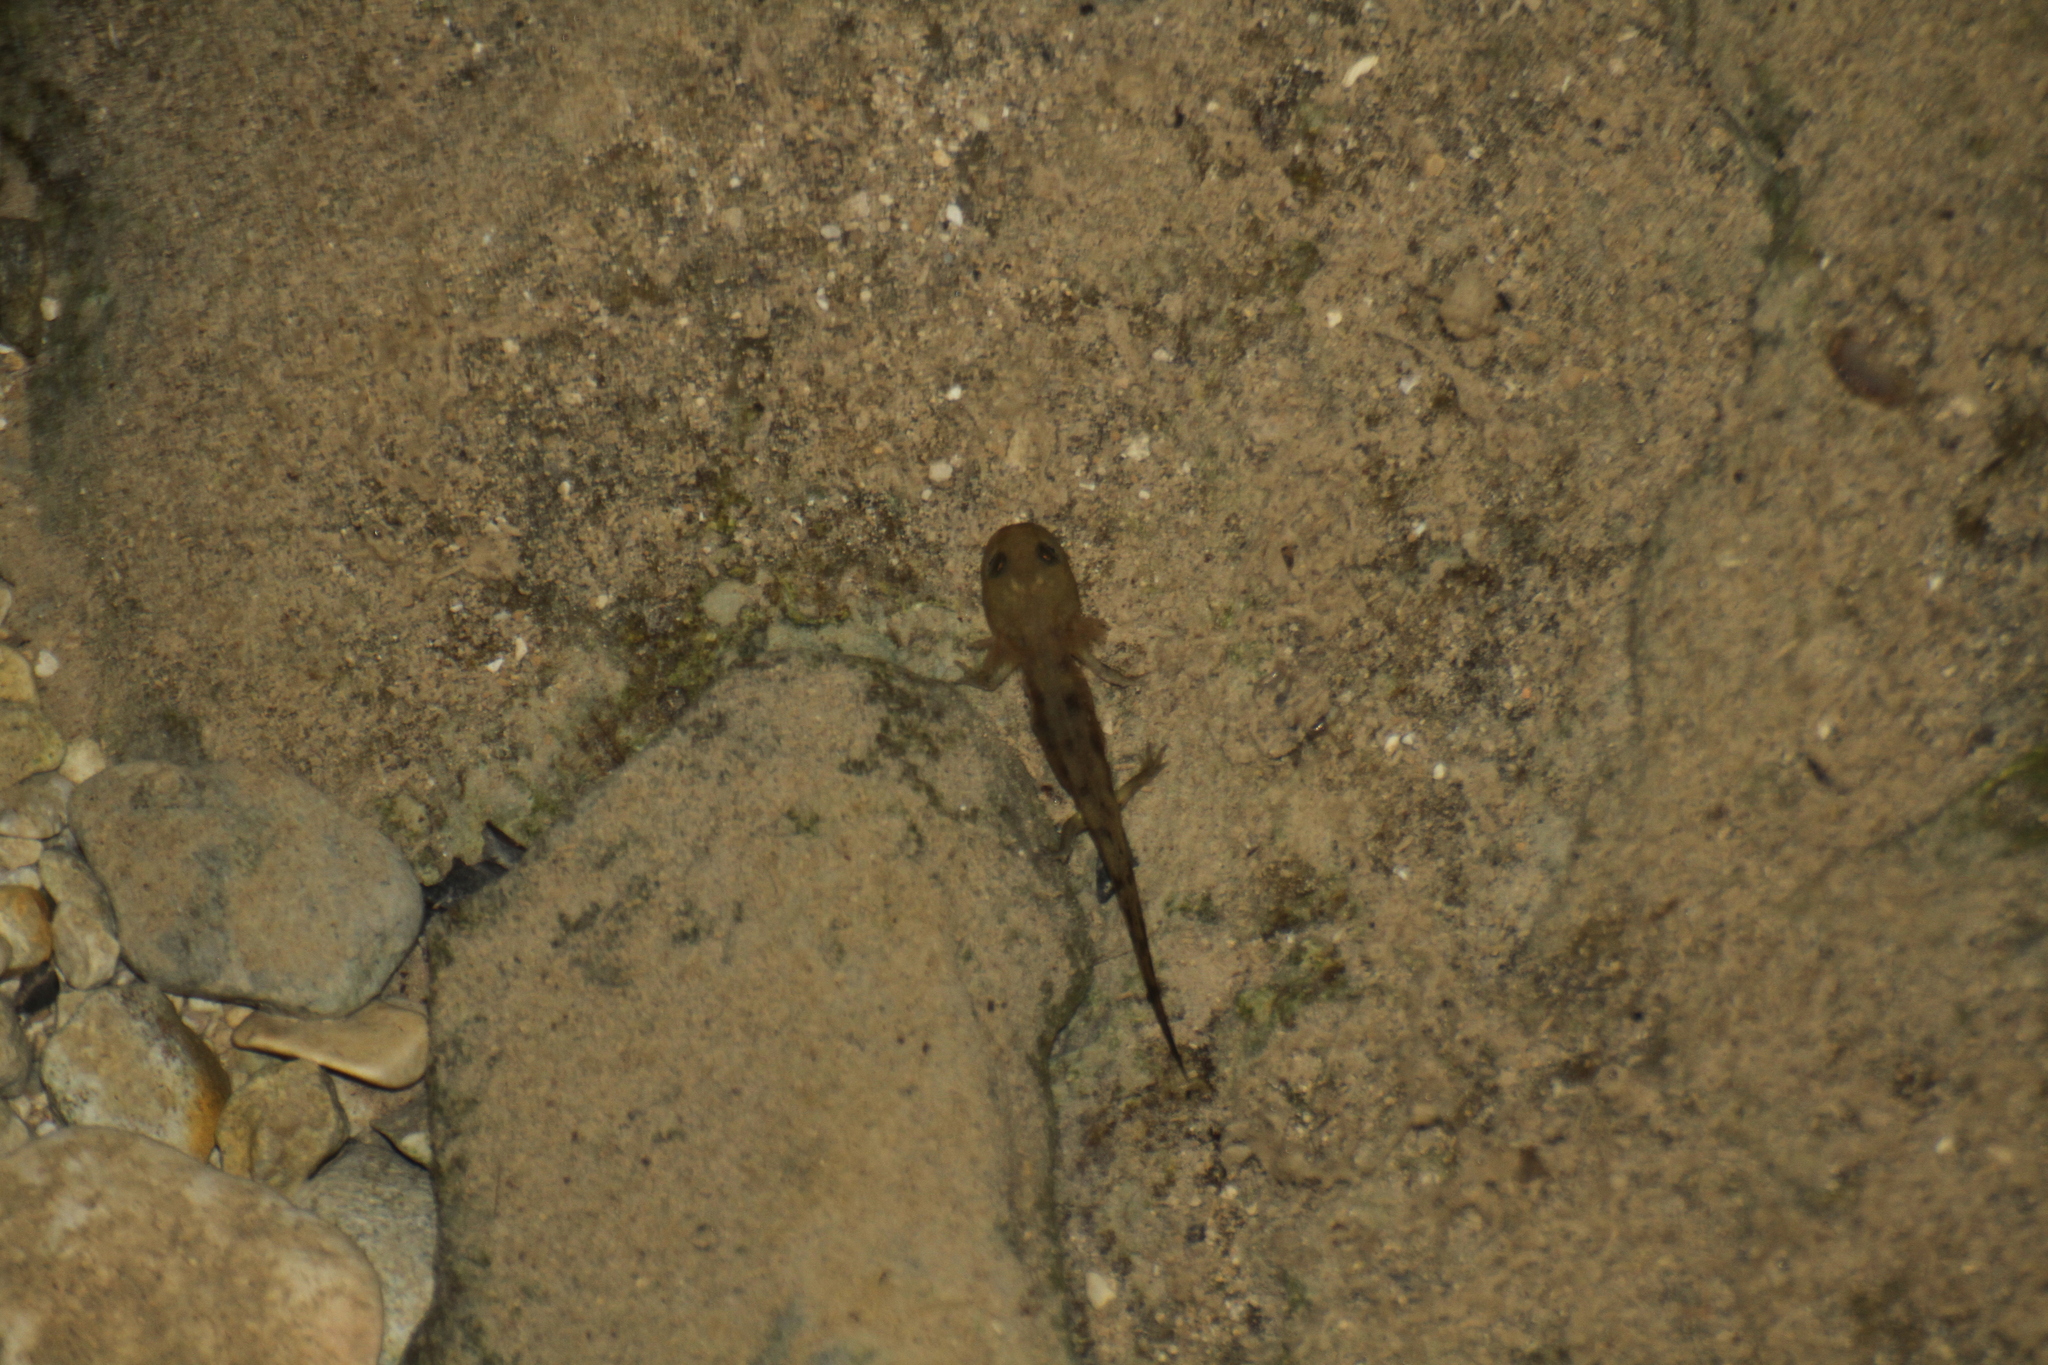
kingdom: Animalia
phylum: Chordata
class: Amphibia
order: Caudata
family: Salamandridae
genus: Salamandra
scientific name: Salamandra salamandra
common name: Fire salamander
